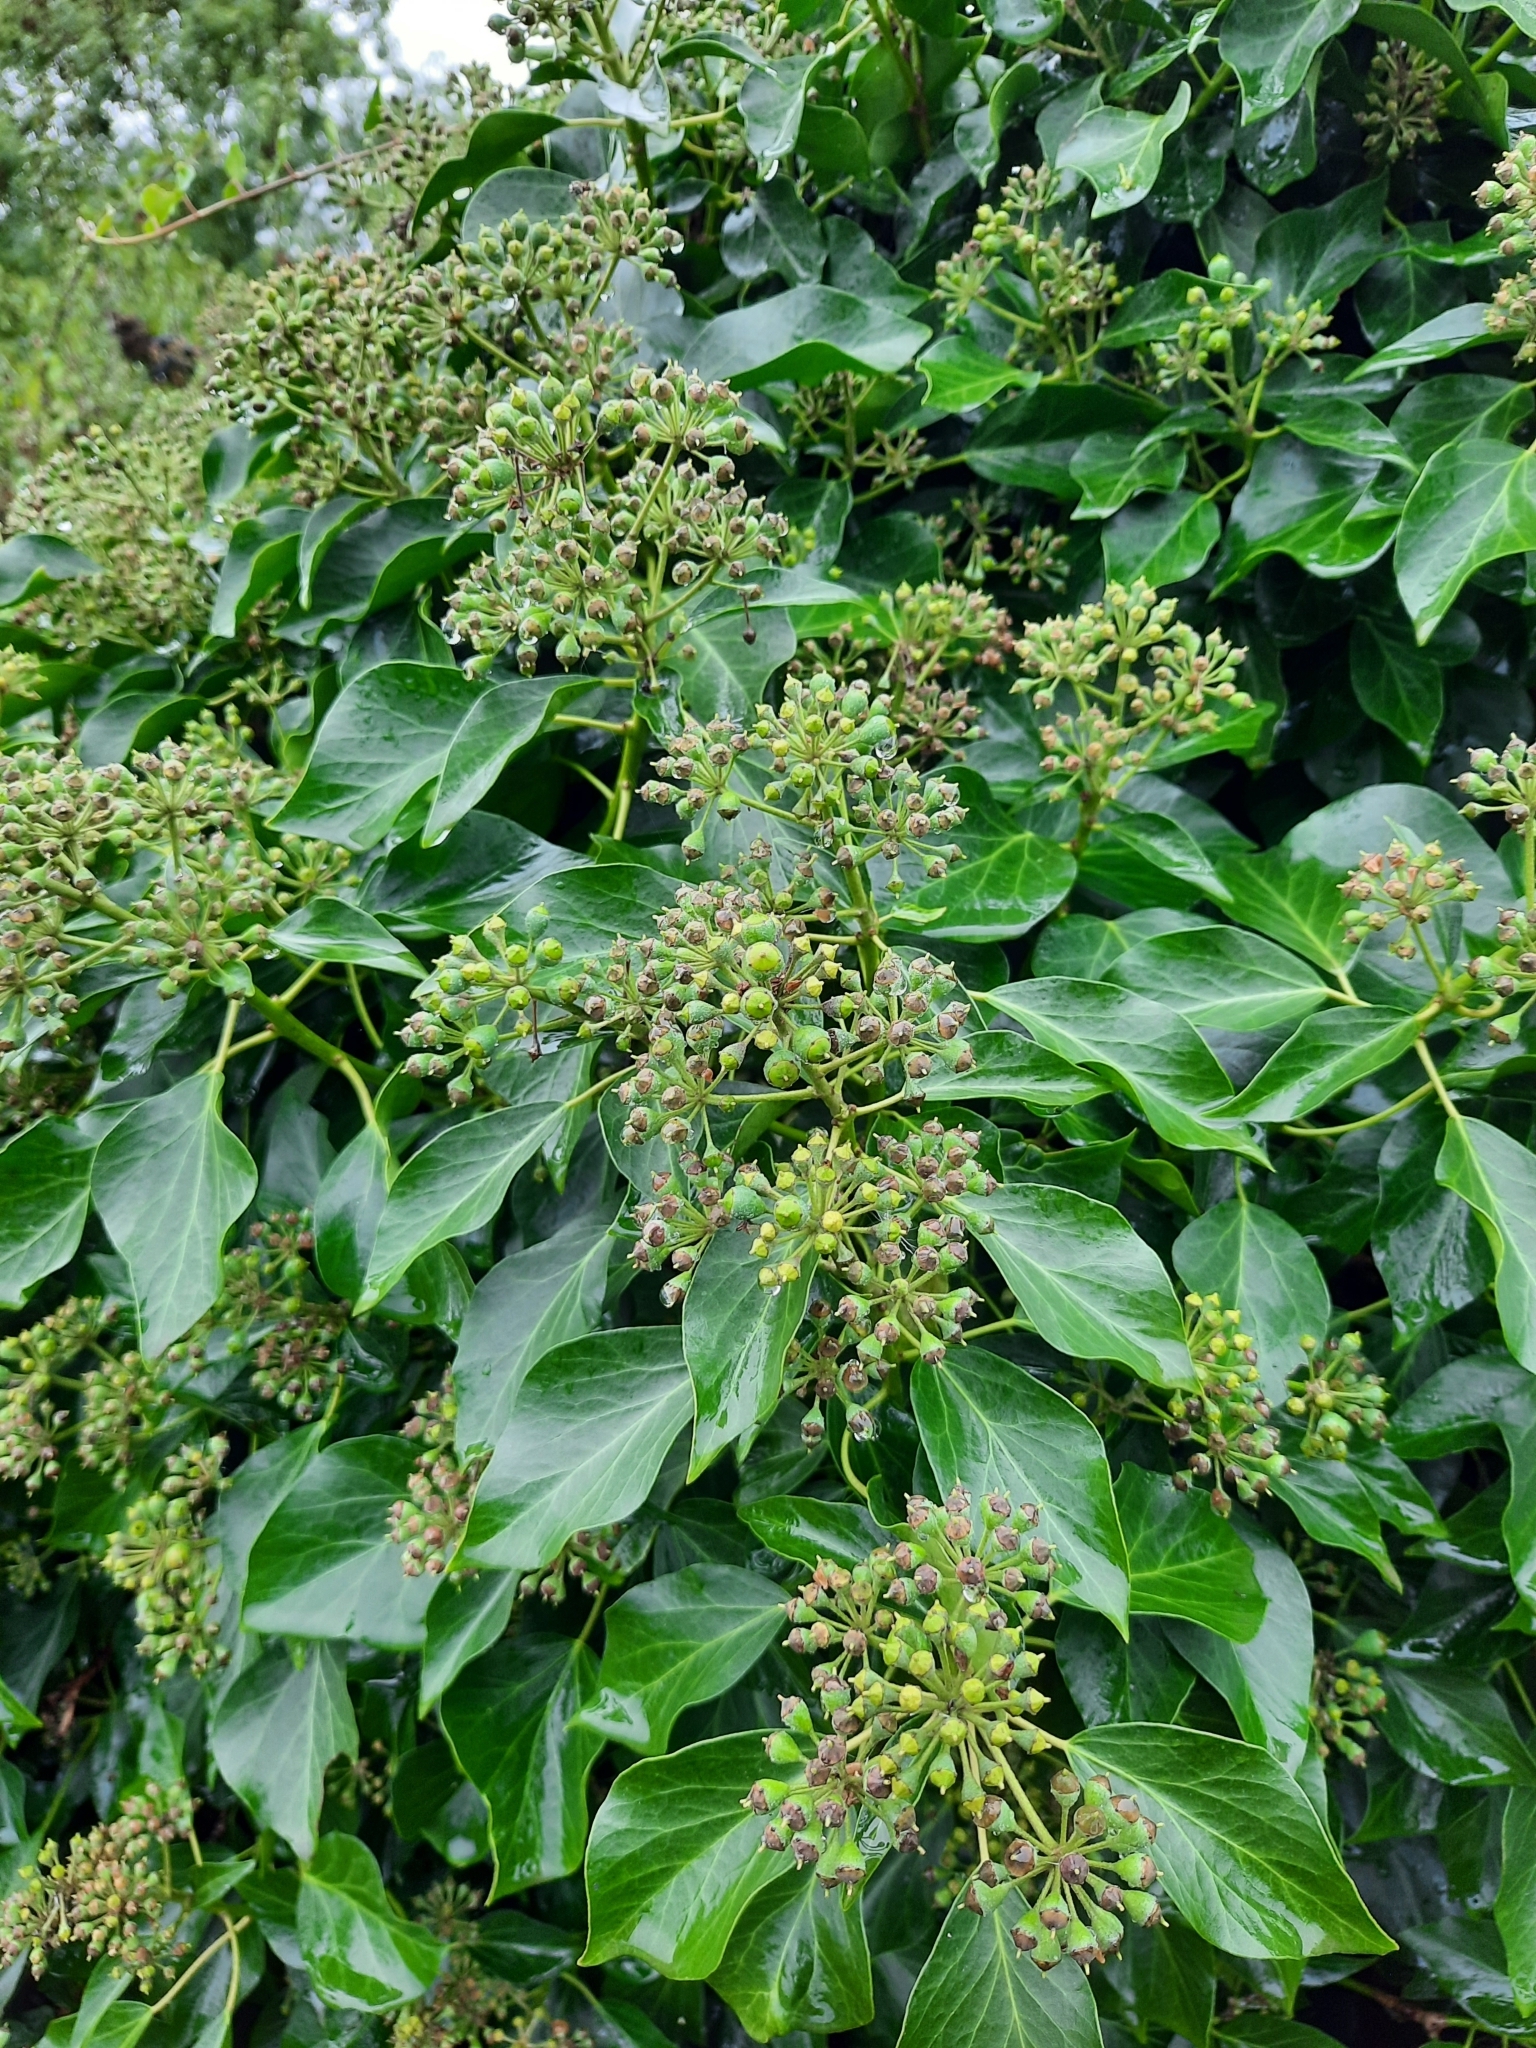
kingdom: Plantae
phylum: Tracheophyta
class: Magnoliopsida
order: Apiales
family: Araliaceae
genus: Hedera
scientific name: Hedera helix
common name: Ivy
